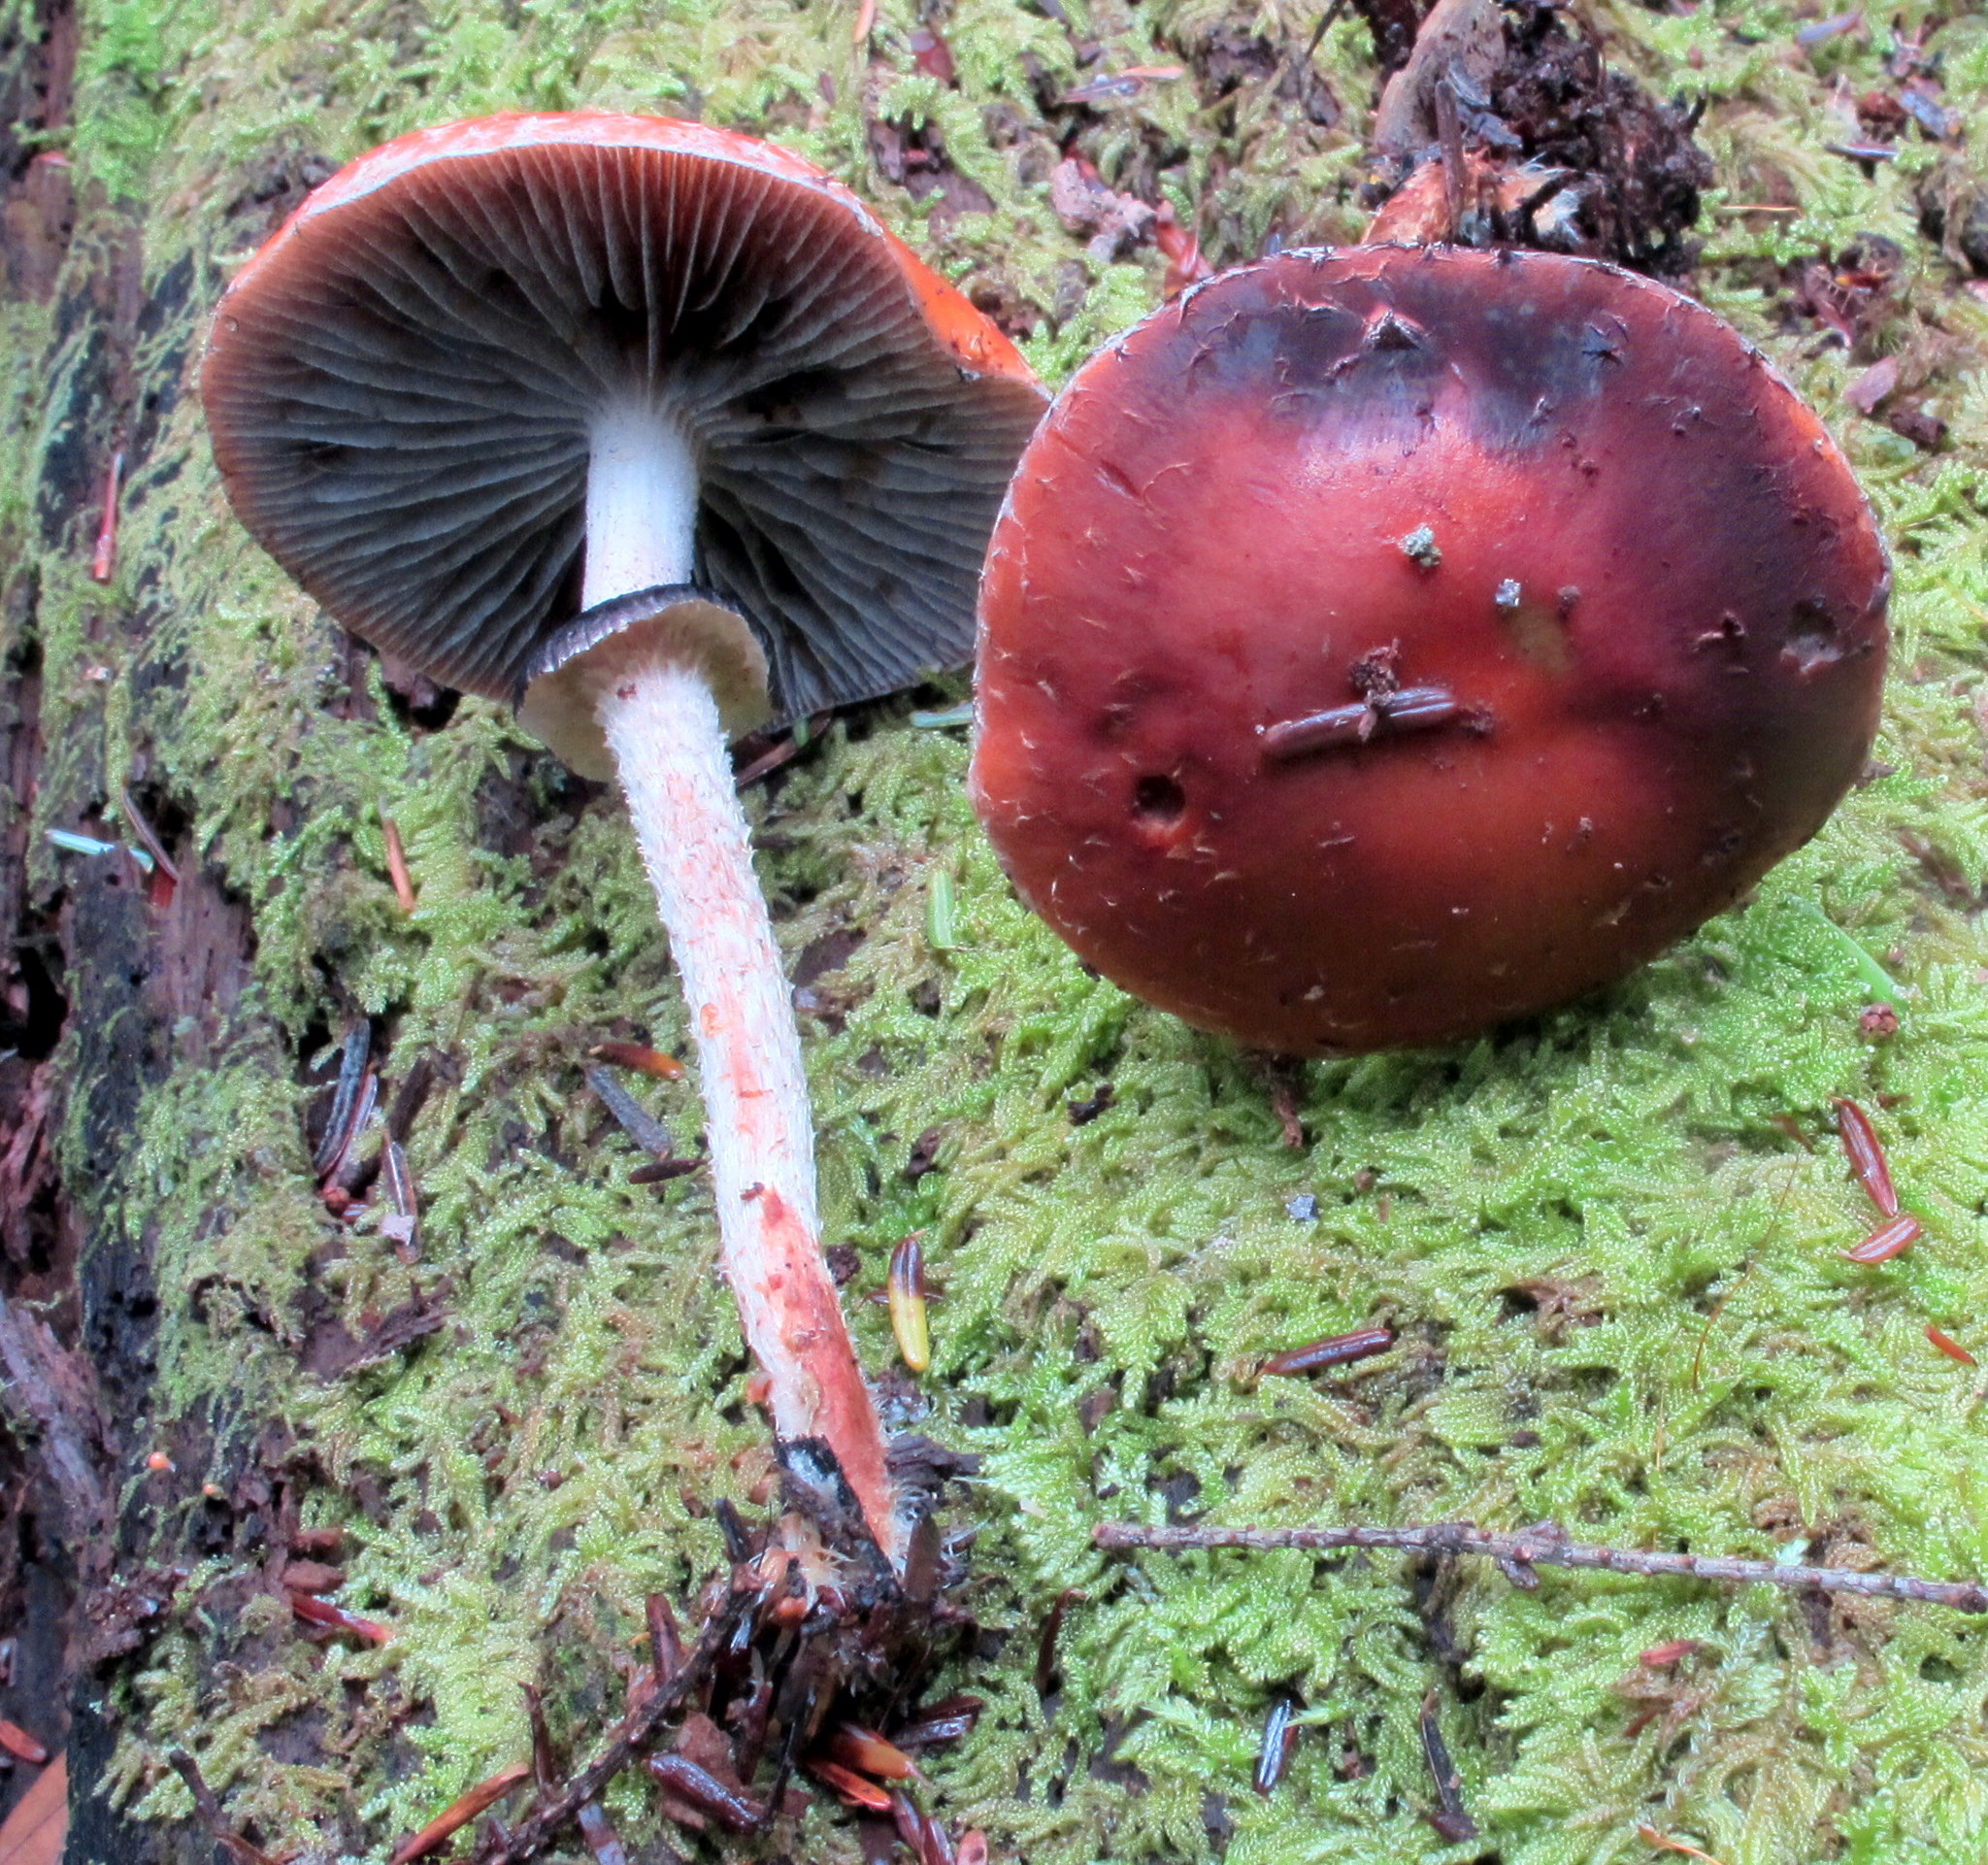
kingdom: Fungi
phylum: Basidiomycota
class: Agaricomycetes
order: Agaricales
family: Strophariaceae
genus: Leratiomyces
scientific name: Leratiomyces squamosus
